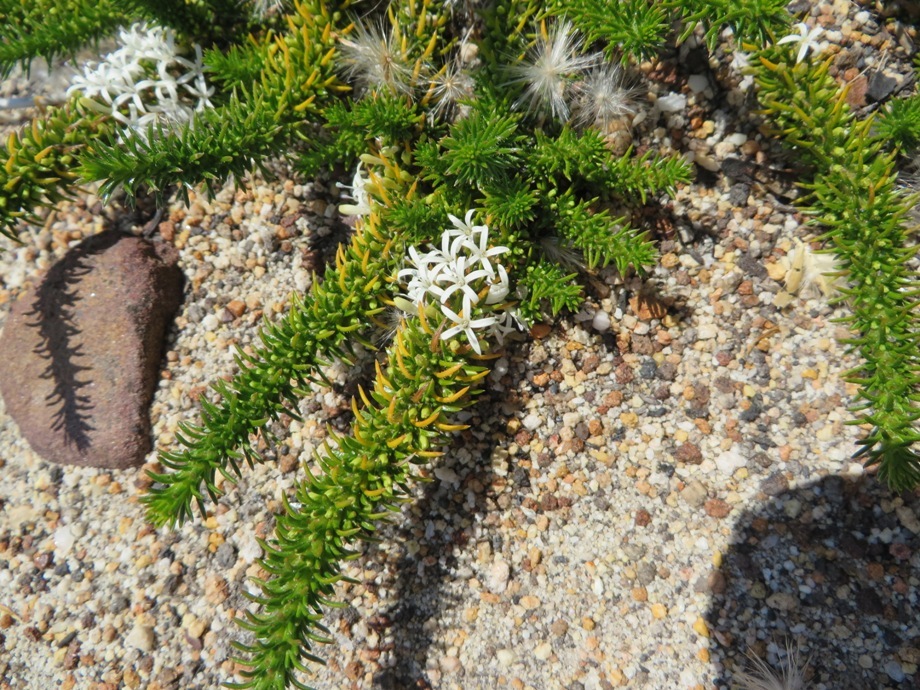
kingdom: Plantae
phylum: Tracheophyta
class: Magnoliopsida
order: Asterales
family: Campanulaceae
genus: Merciera
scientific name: Merciera leptoloba
